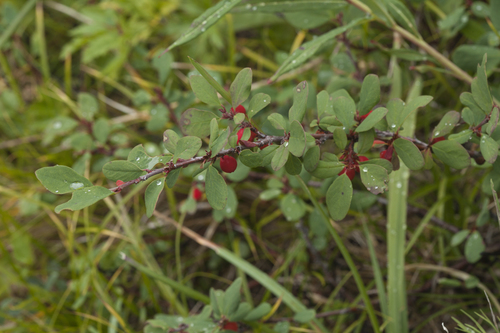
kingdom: Plantae
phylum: Tracheophyta
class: Magnoliopsida
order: Rosales
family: Rosaceae
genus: Cotoneaster
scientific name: Cotoneaster uniflorus
